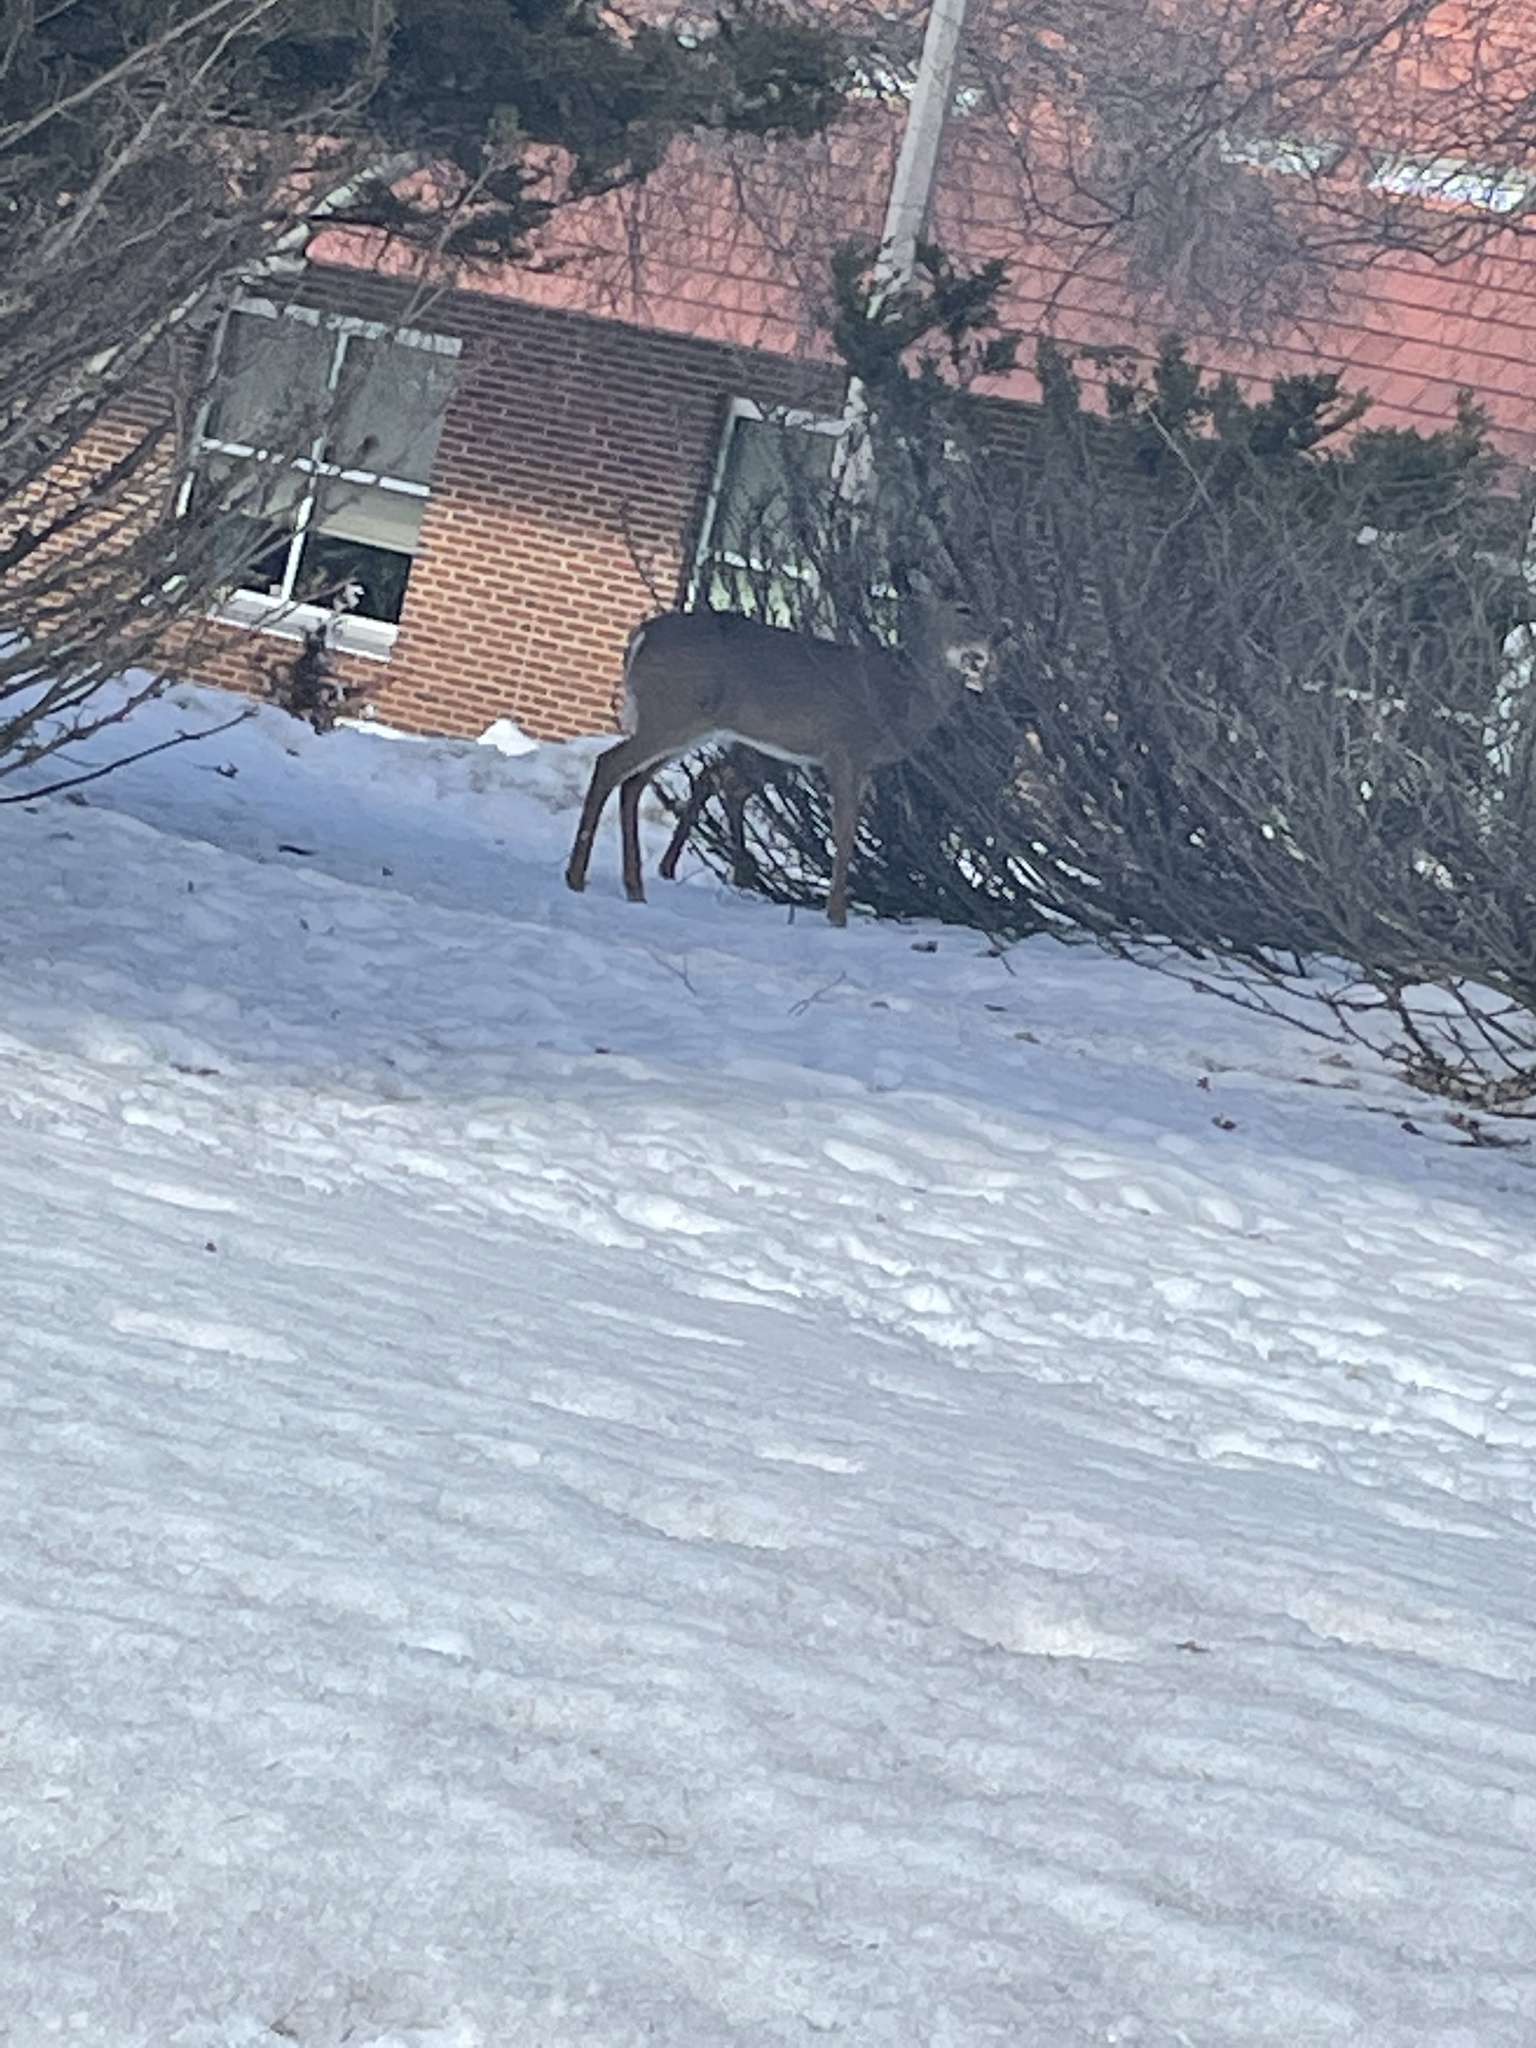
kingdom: Animalia
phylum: Chordata
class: Mammalia
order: Artiodactyla
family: Cervidae
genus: Odocoileus
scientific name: Odocoileus virginianus
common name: White-tailed deer
